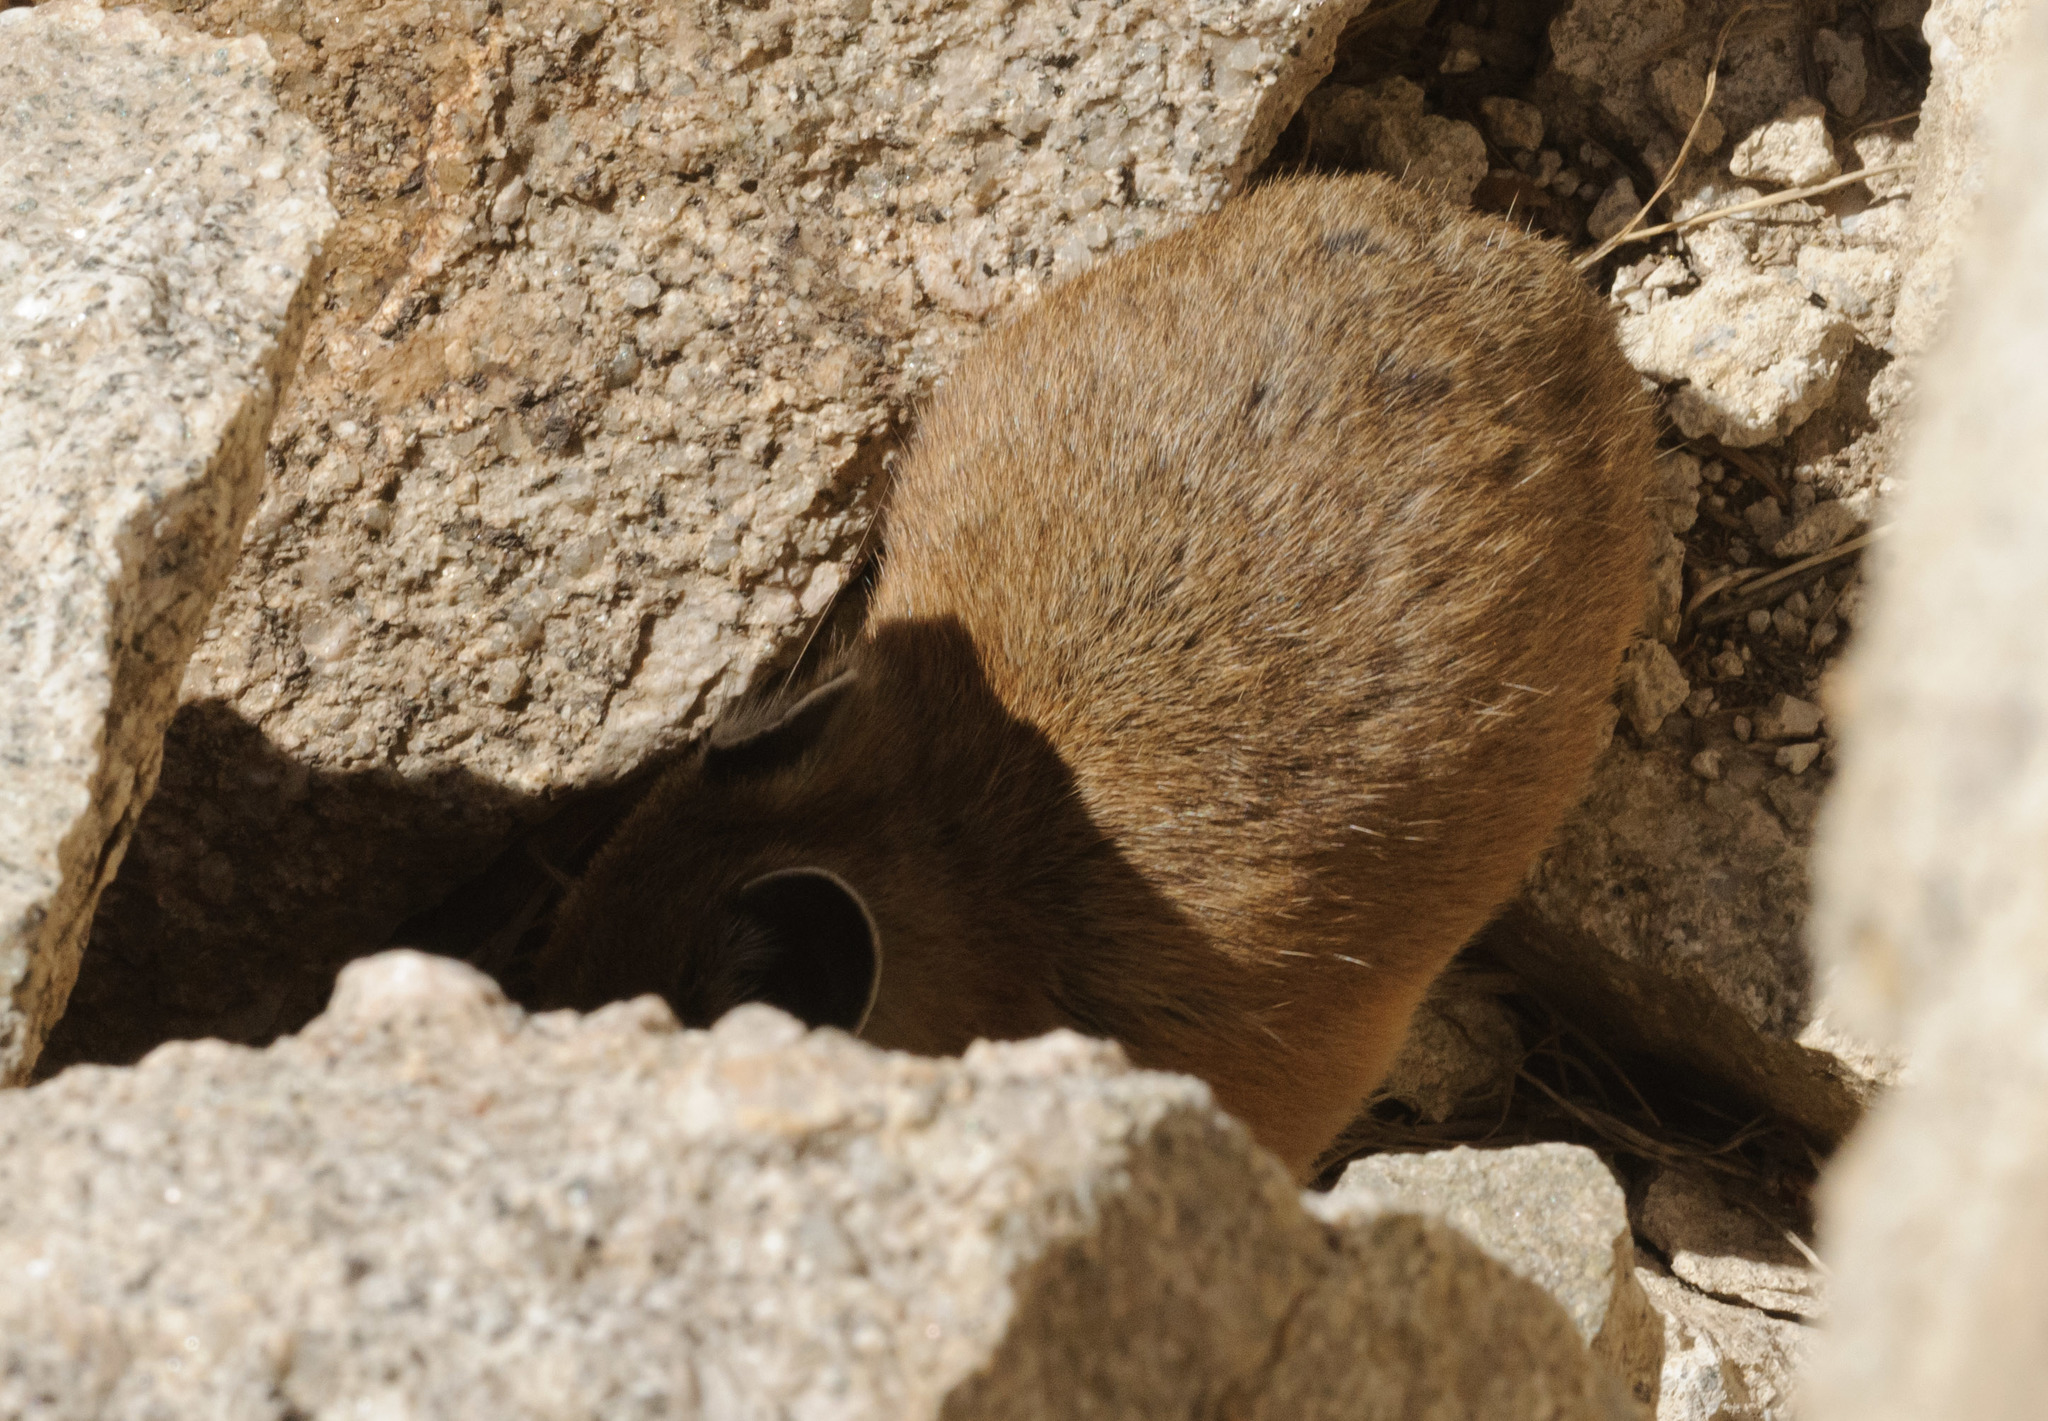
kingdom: Animalia
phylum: Chordata
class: Mammalia
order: Lagomorpha
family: Ochotonidae
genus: Ochotona
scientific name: Ochotona princeps
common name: American pika
